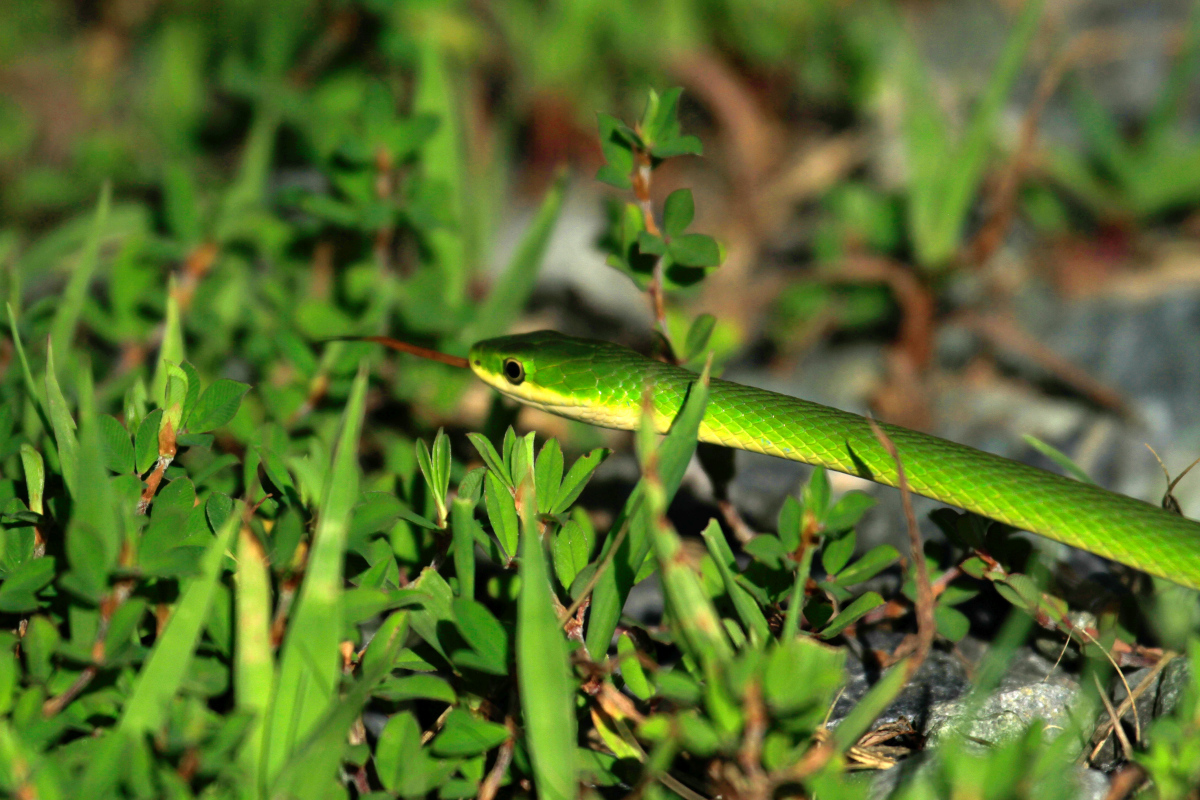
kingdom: Animalia
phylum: Chordata
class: Squamata
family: Colubridae
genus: Opheodrys
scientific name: Opheodrys aestivus
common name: Rough greensnake
